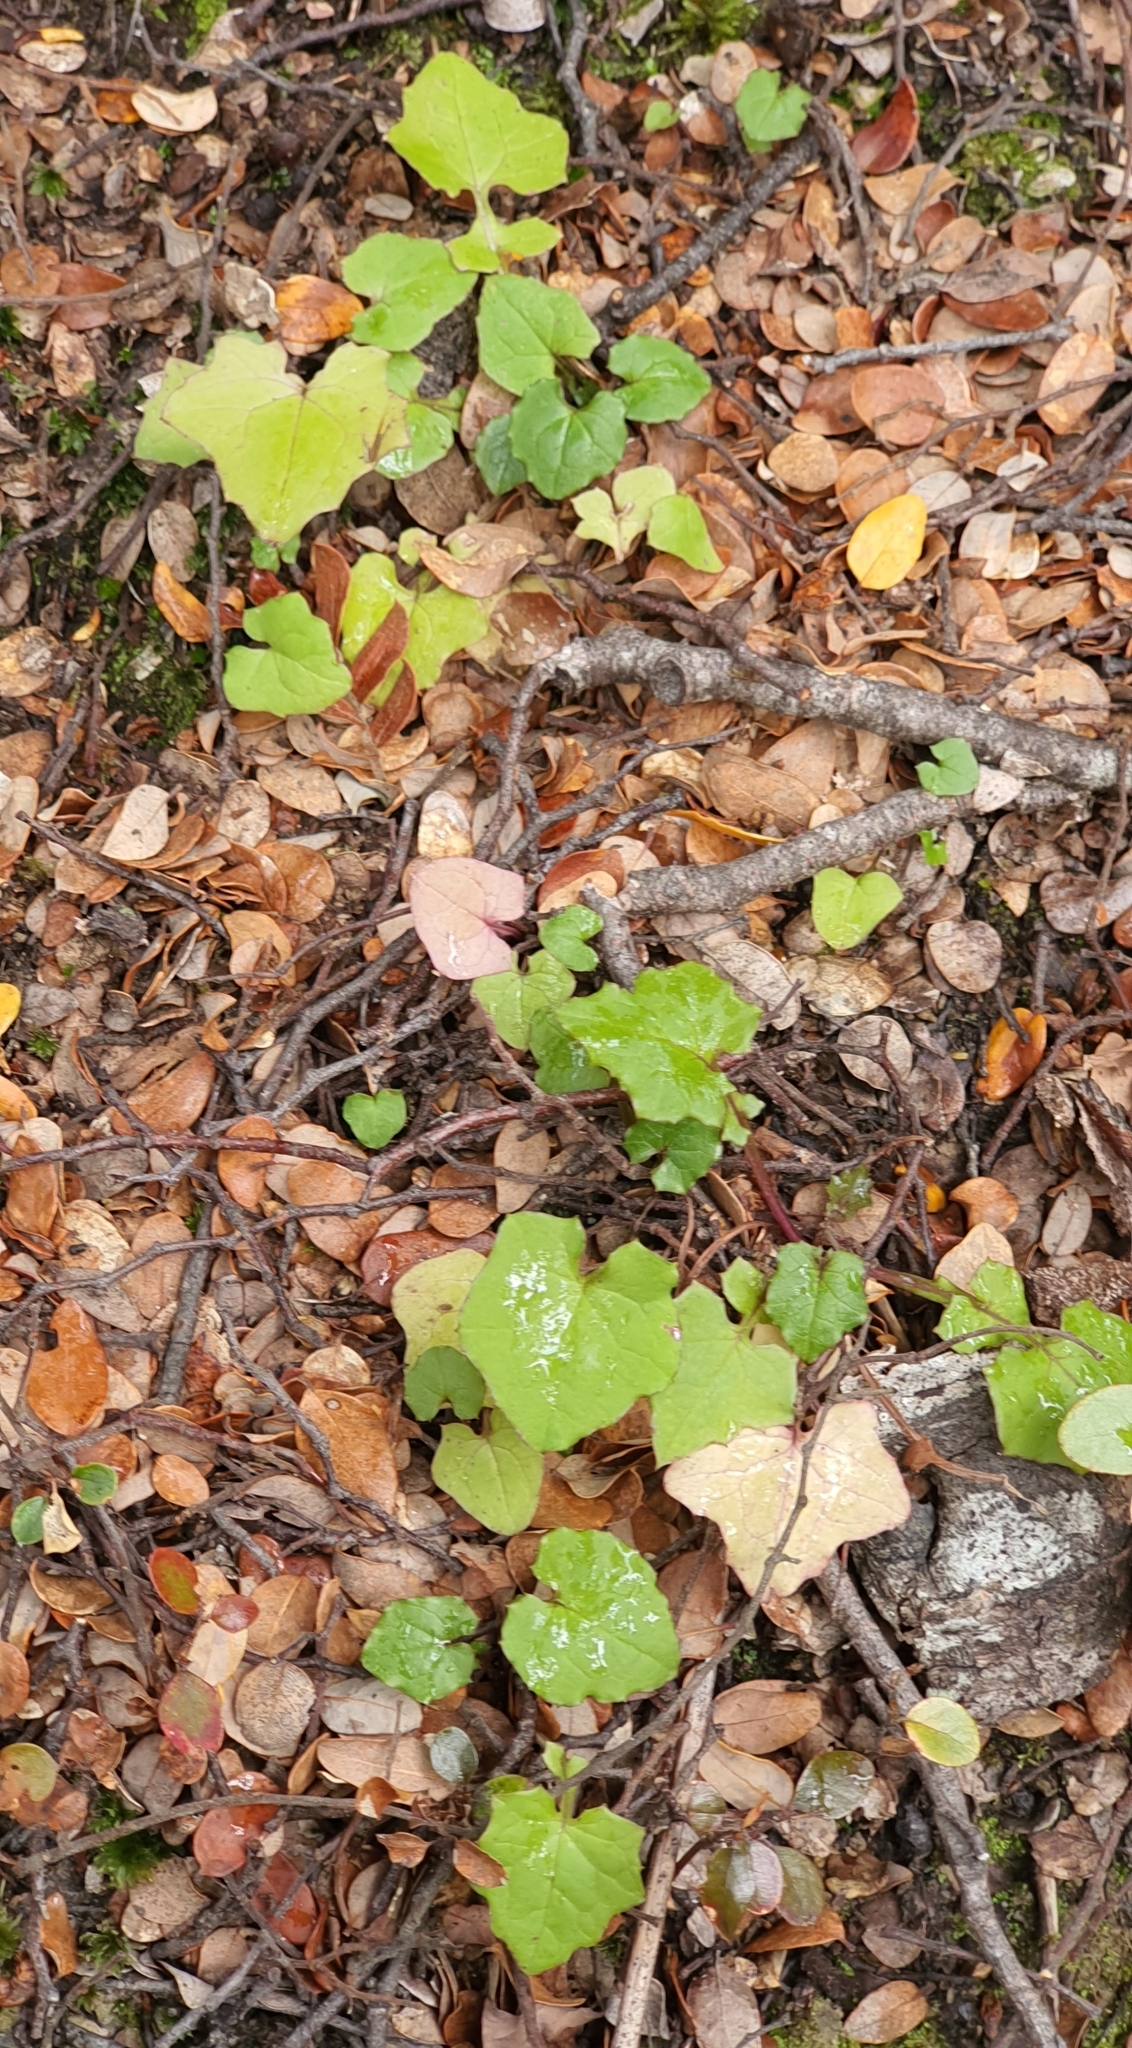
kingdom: Plantae
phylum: Tracheophyta
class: Magnoliopsida
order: Asterales
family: Asteraceae
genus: Mycelis
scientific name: Mycelis muralis
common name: Wall lettuce
